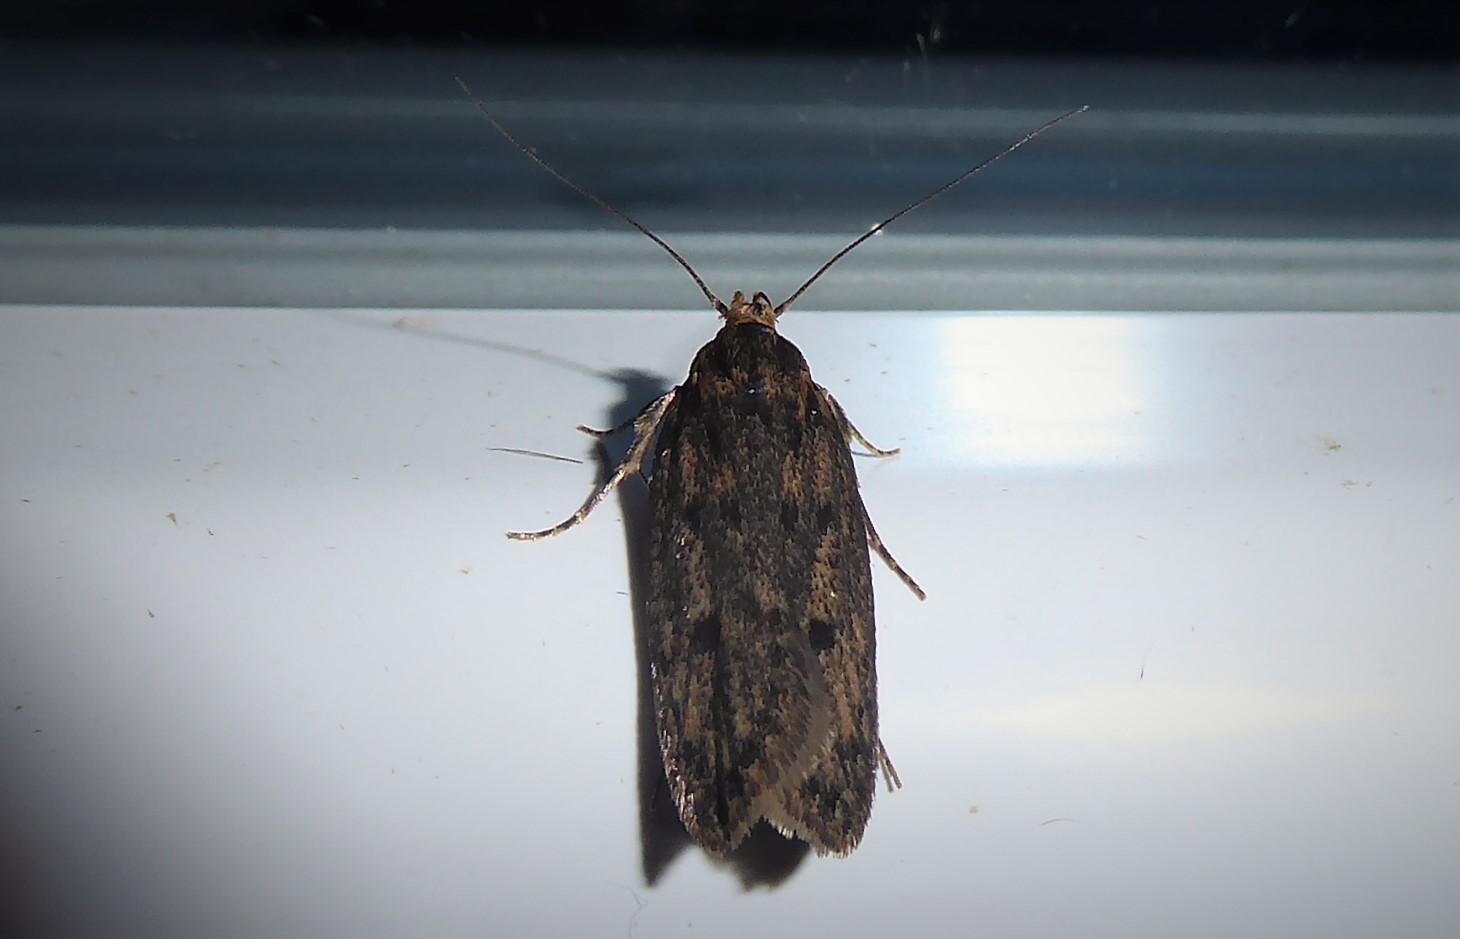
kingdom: Animalia
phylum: Arthropoda
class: Insecta
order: Lepidoptera
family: Oecophoridae
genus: Hofmannophila
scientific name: Hofmannophila pseudospretella
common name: Brown house moth
